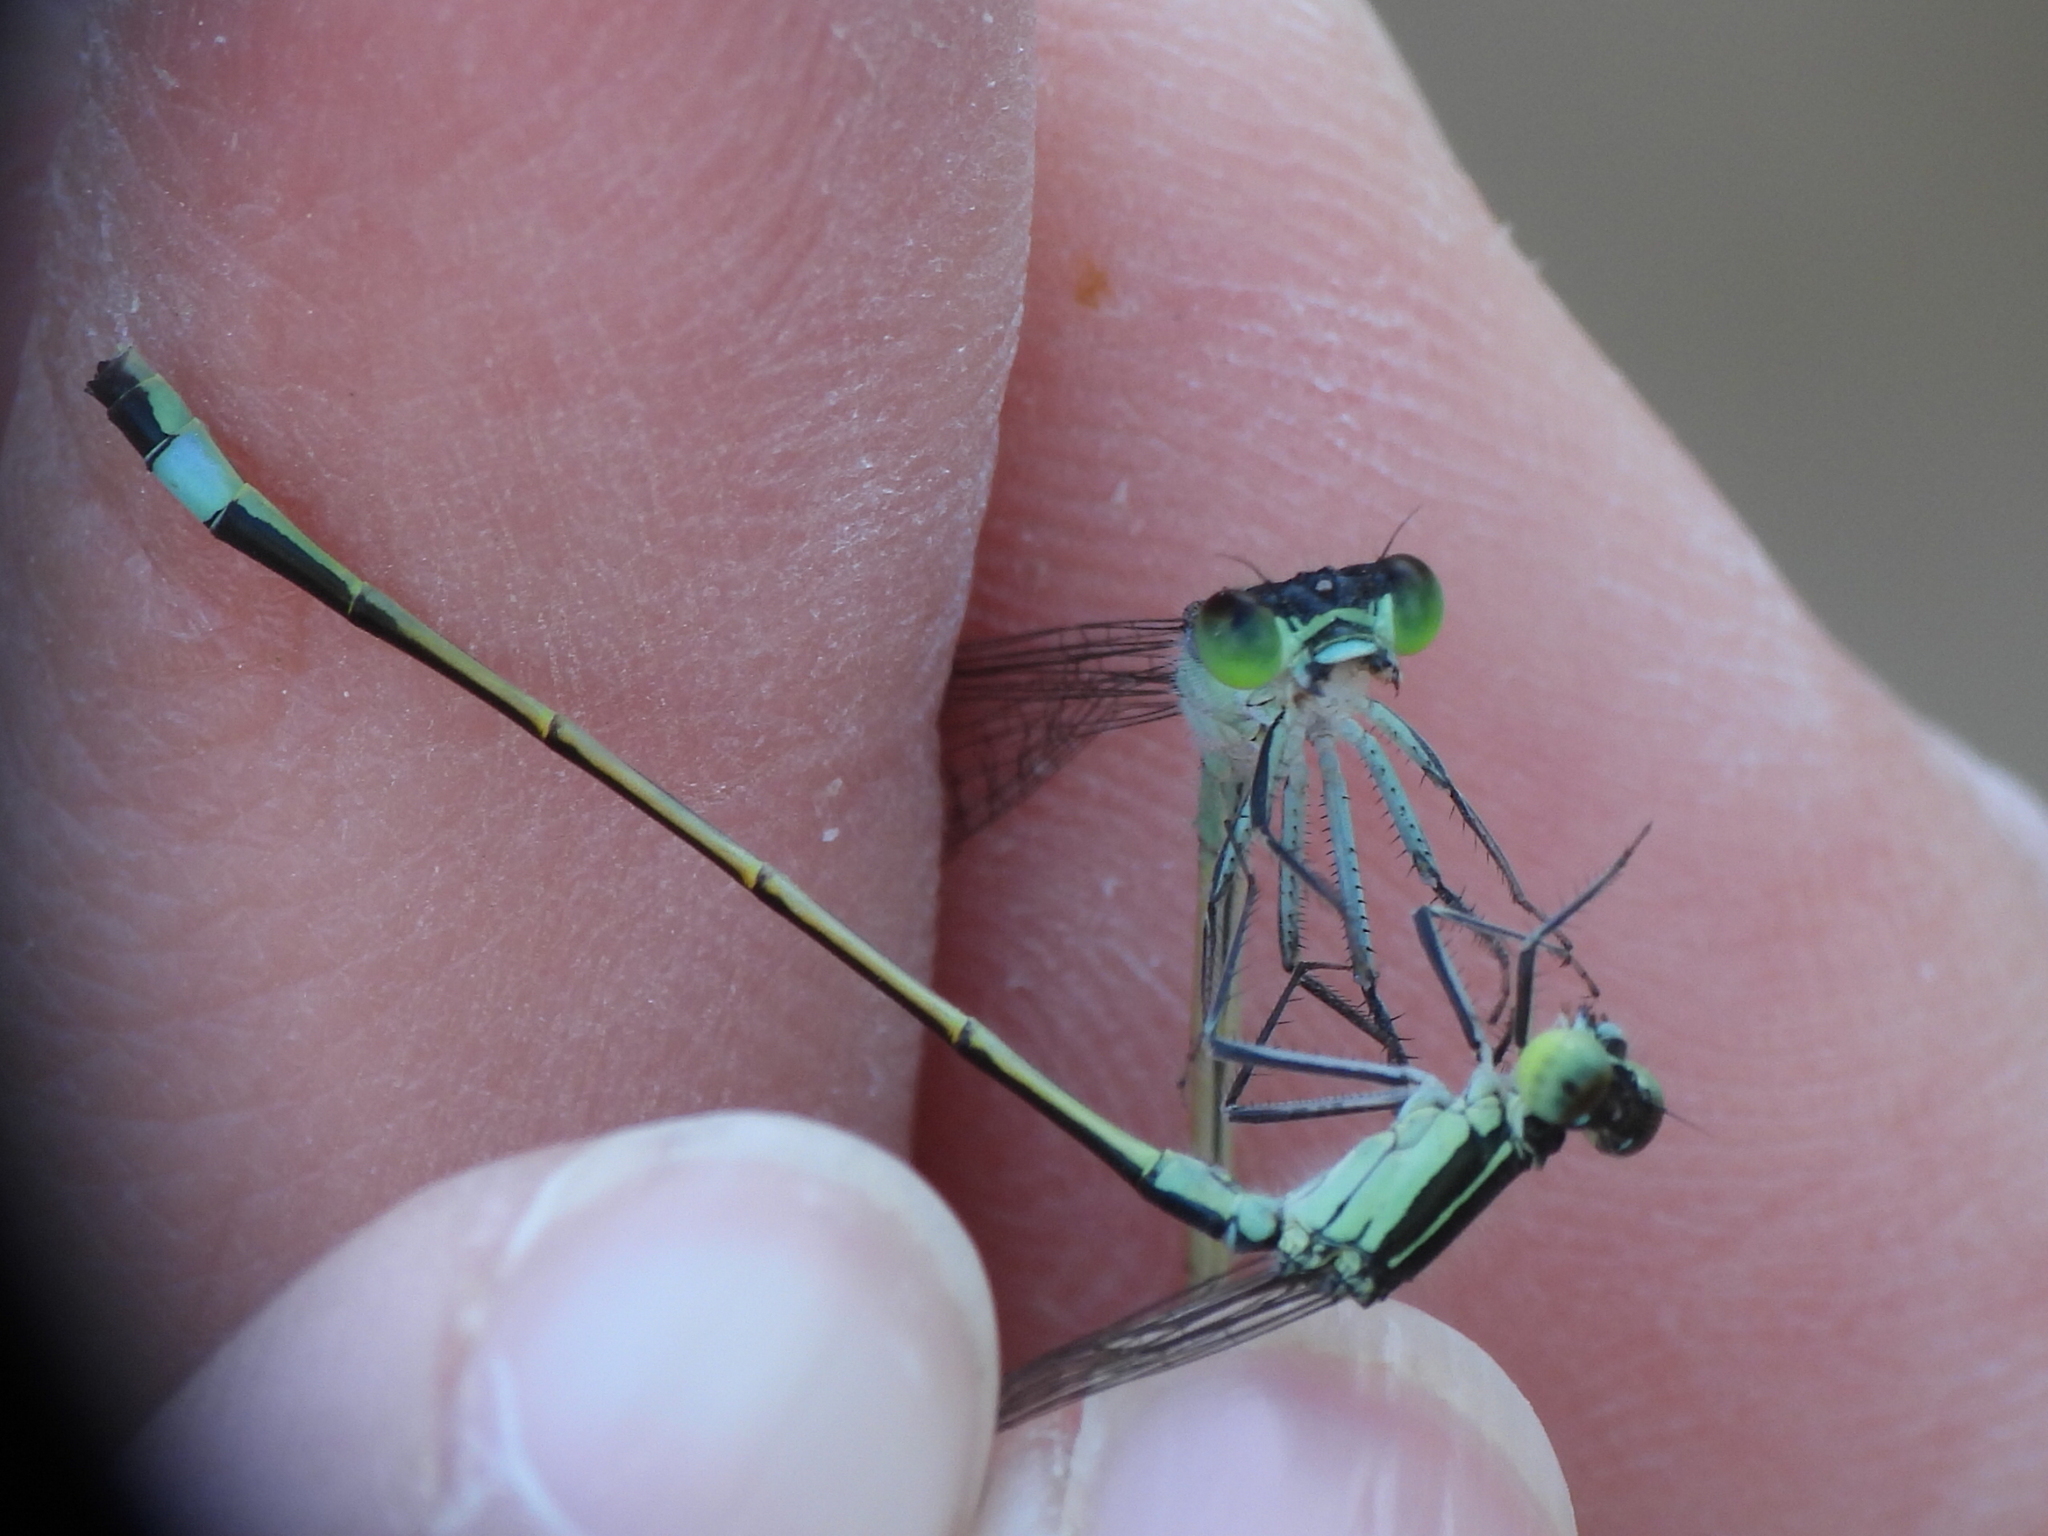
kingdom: Animalia
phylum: Arthropoda
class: Insecta
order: Odonata
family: Coenagrionidae
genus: Ischnura
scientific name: Ischnura evansi
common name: Desert bluetail
